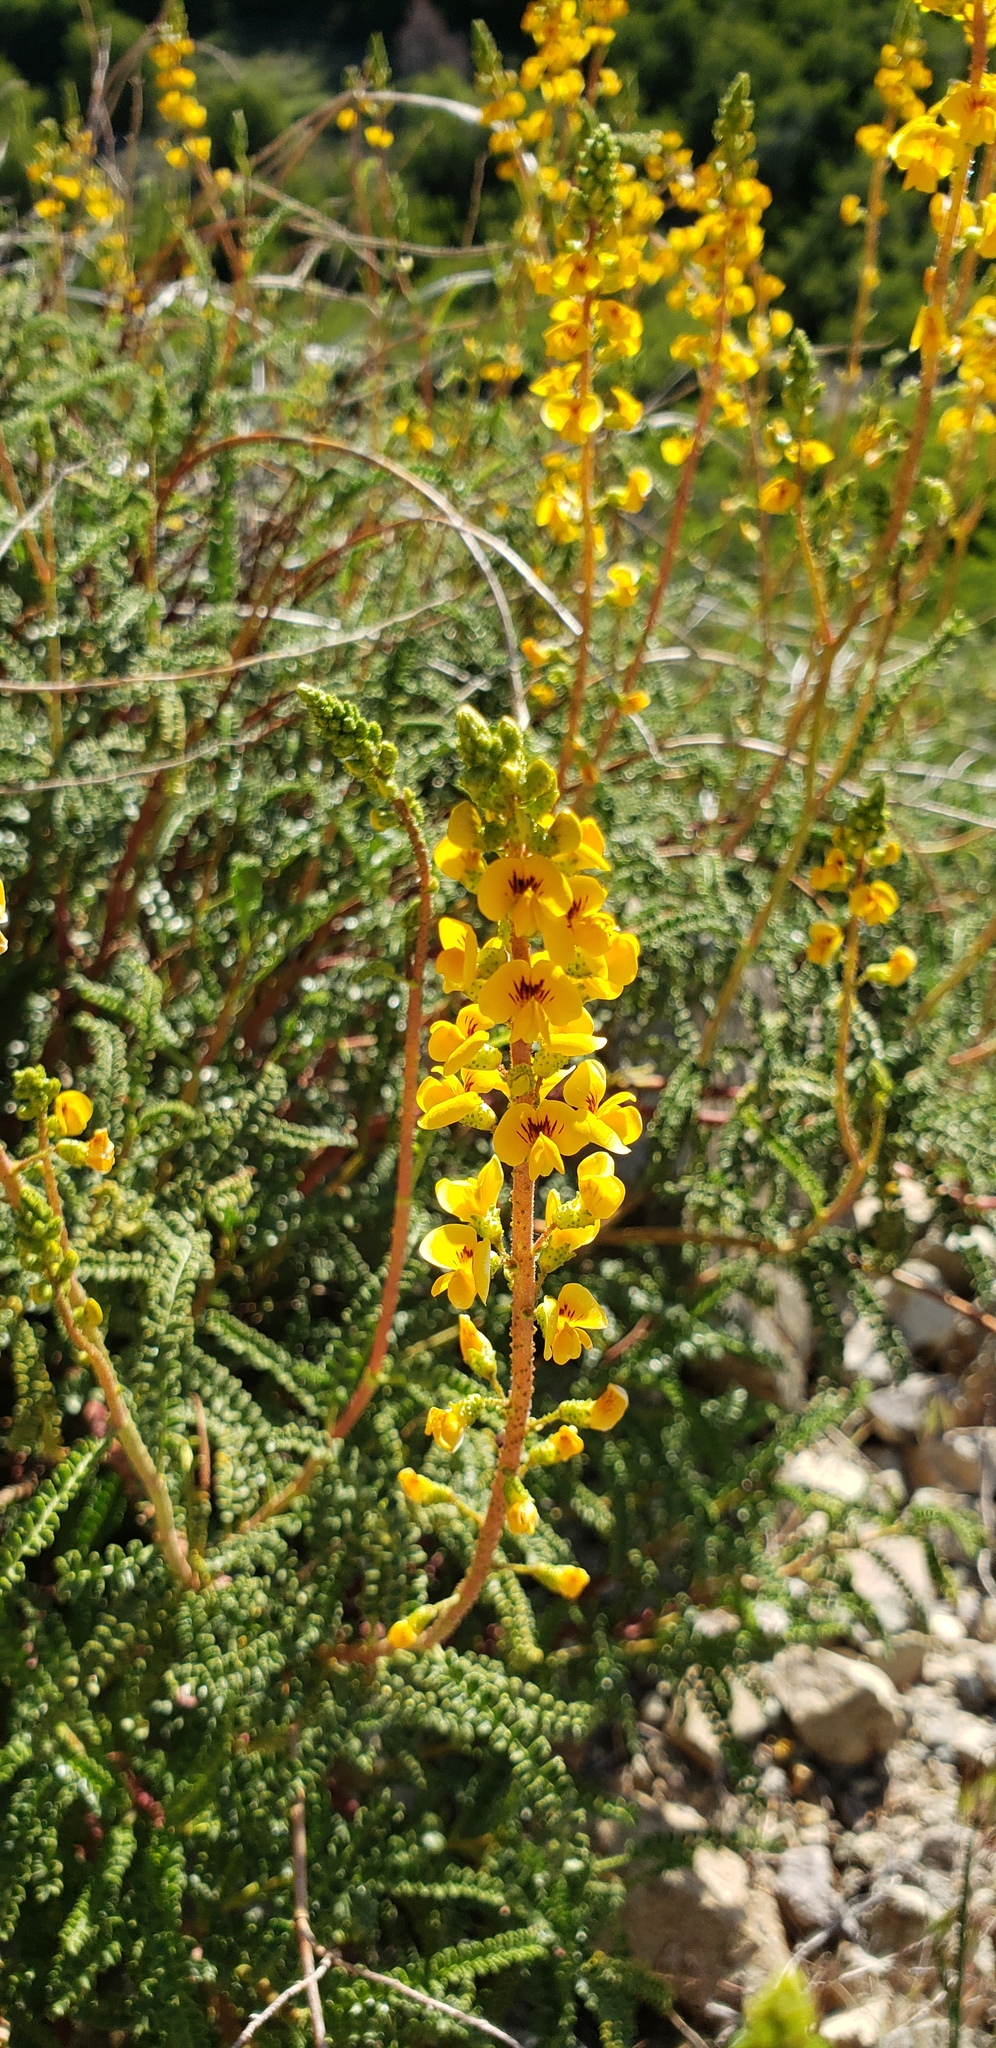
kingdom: Plantae
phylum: Tracheophyta
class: Magnoliopsida
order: Fabales
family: Fabaceae
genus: Adesmia
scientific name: Adesmia boronioides
